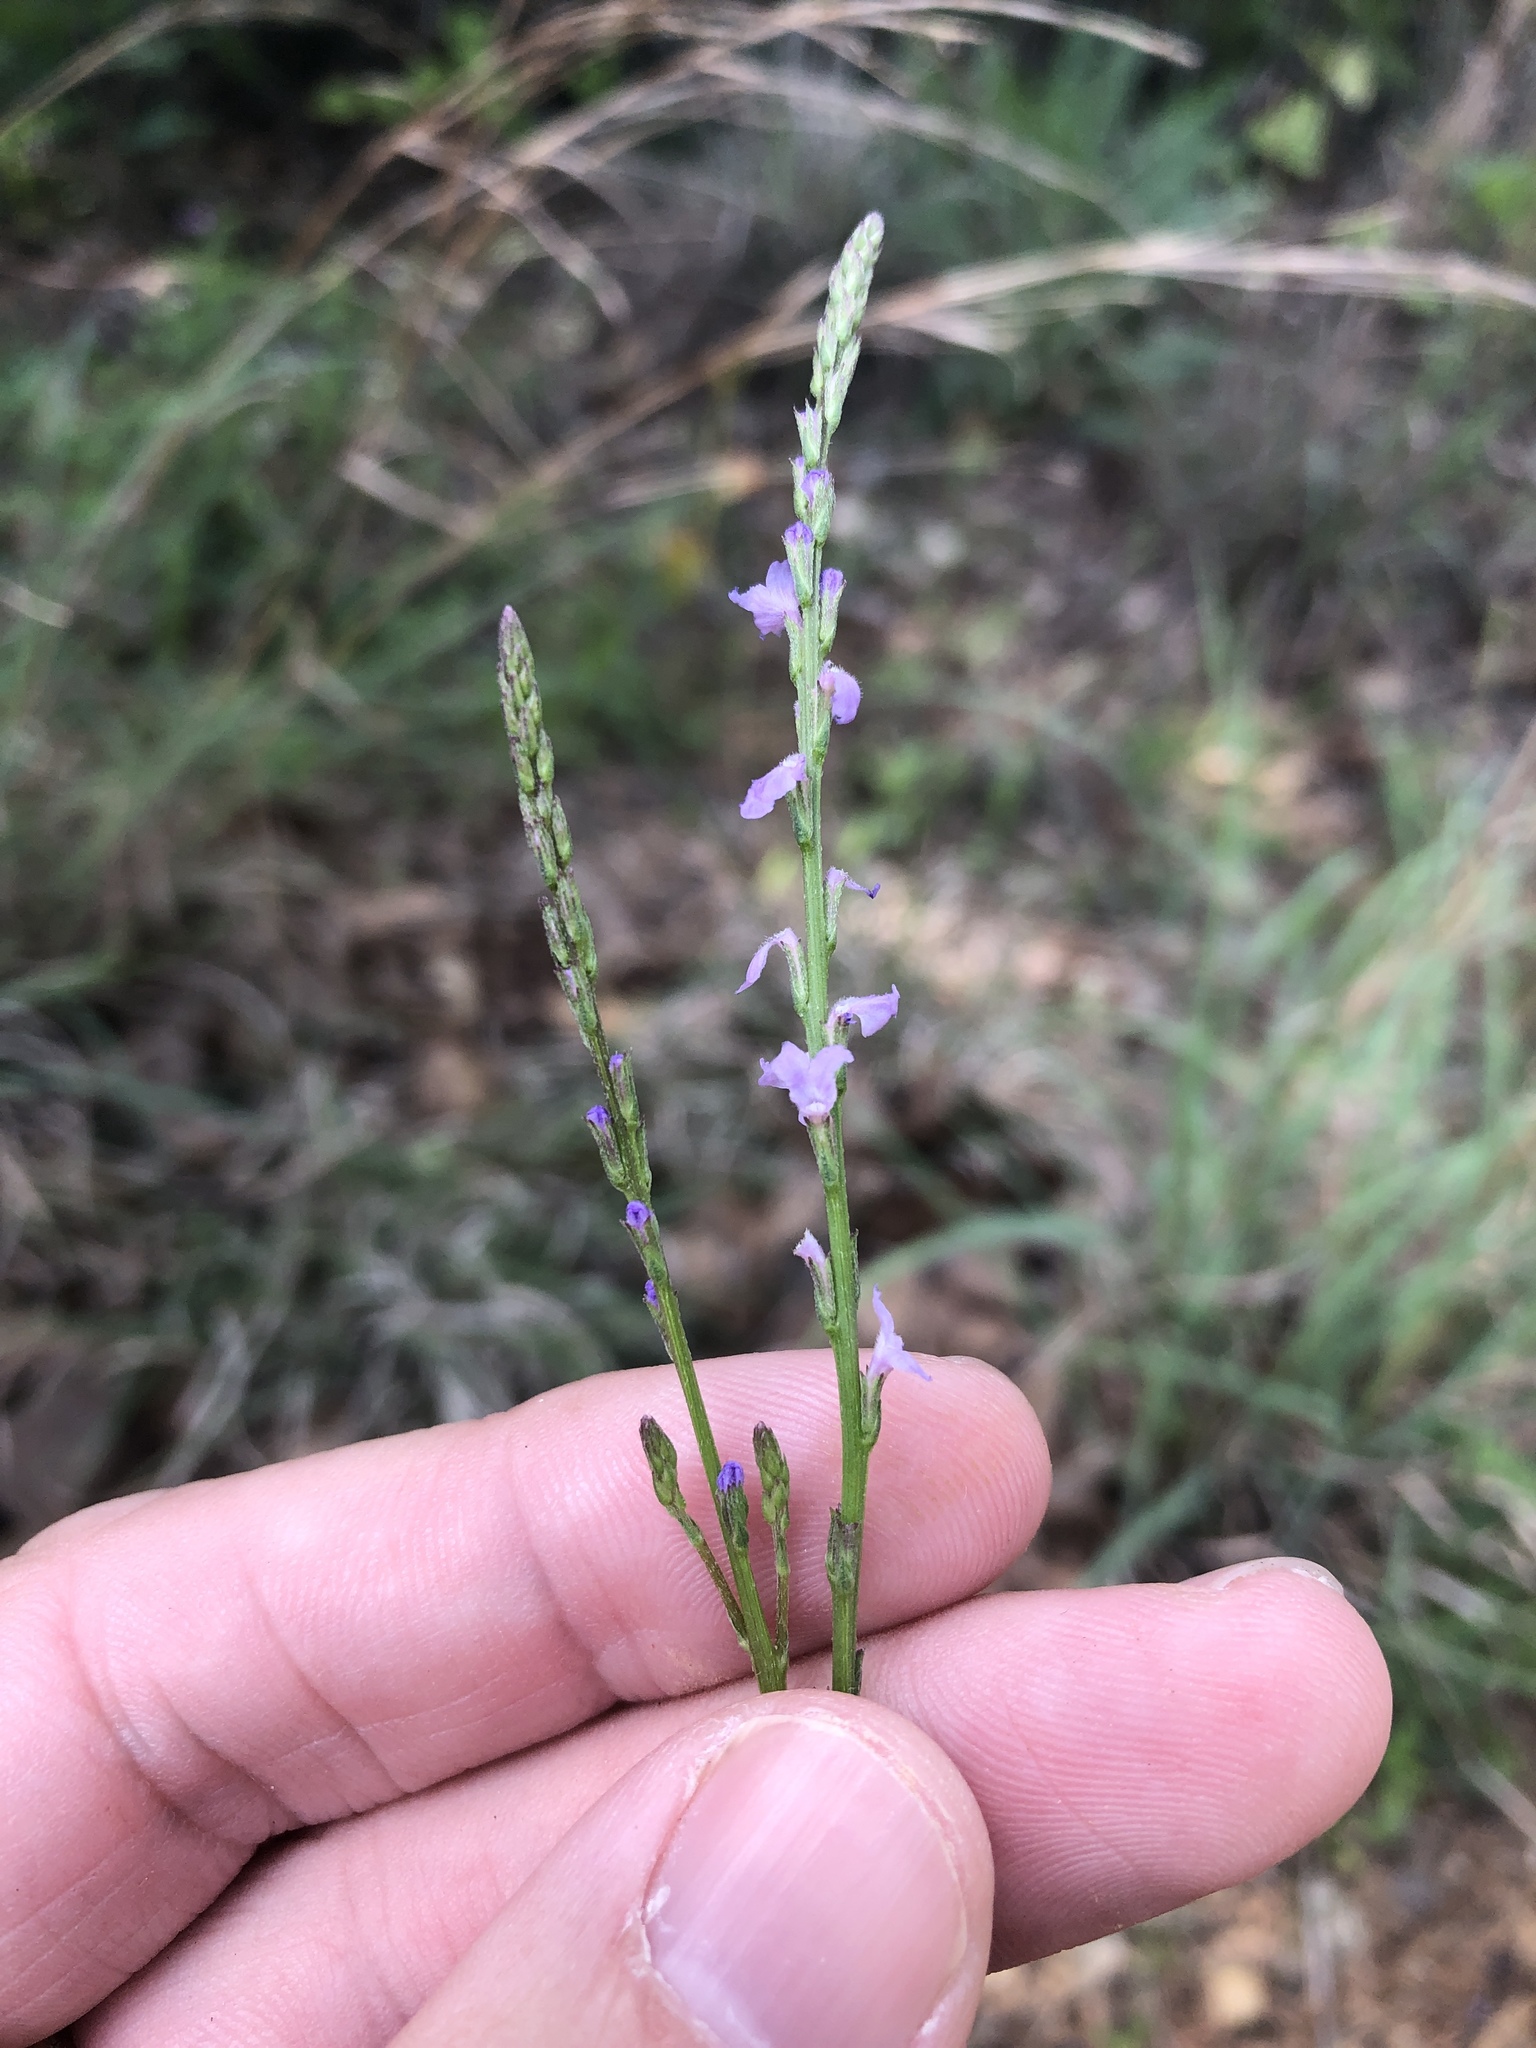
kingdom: Plantae
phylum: Tracheophyta
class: Magnoliopsida
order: Lamiales
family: Verbenaceae
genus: Verbena
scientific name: Verbena halei
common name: Texas vervain
